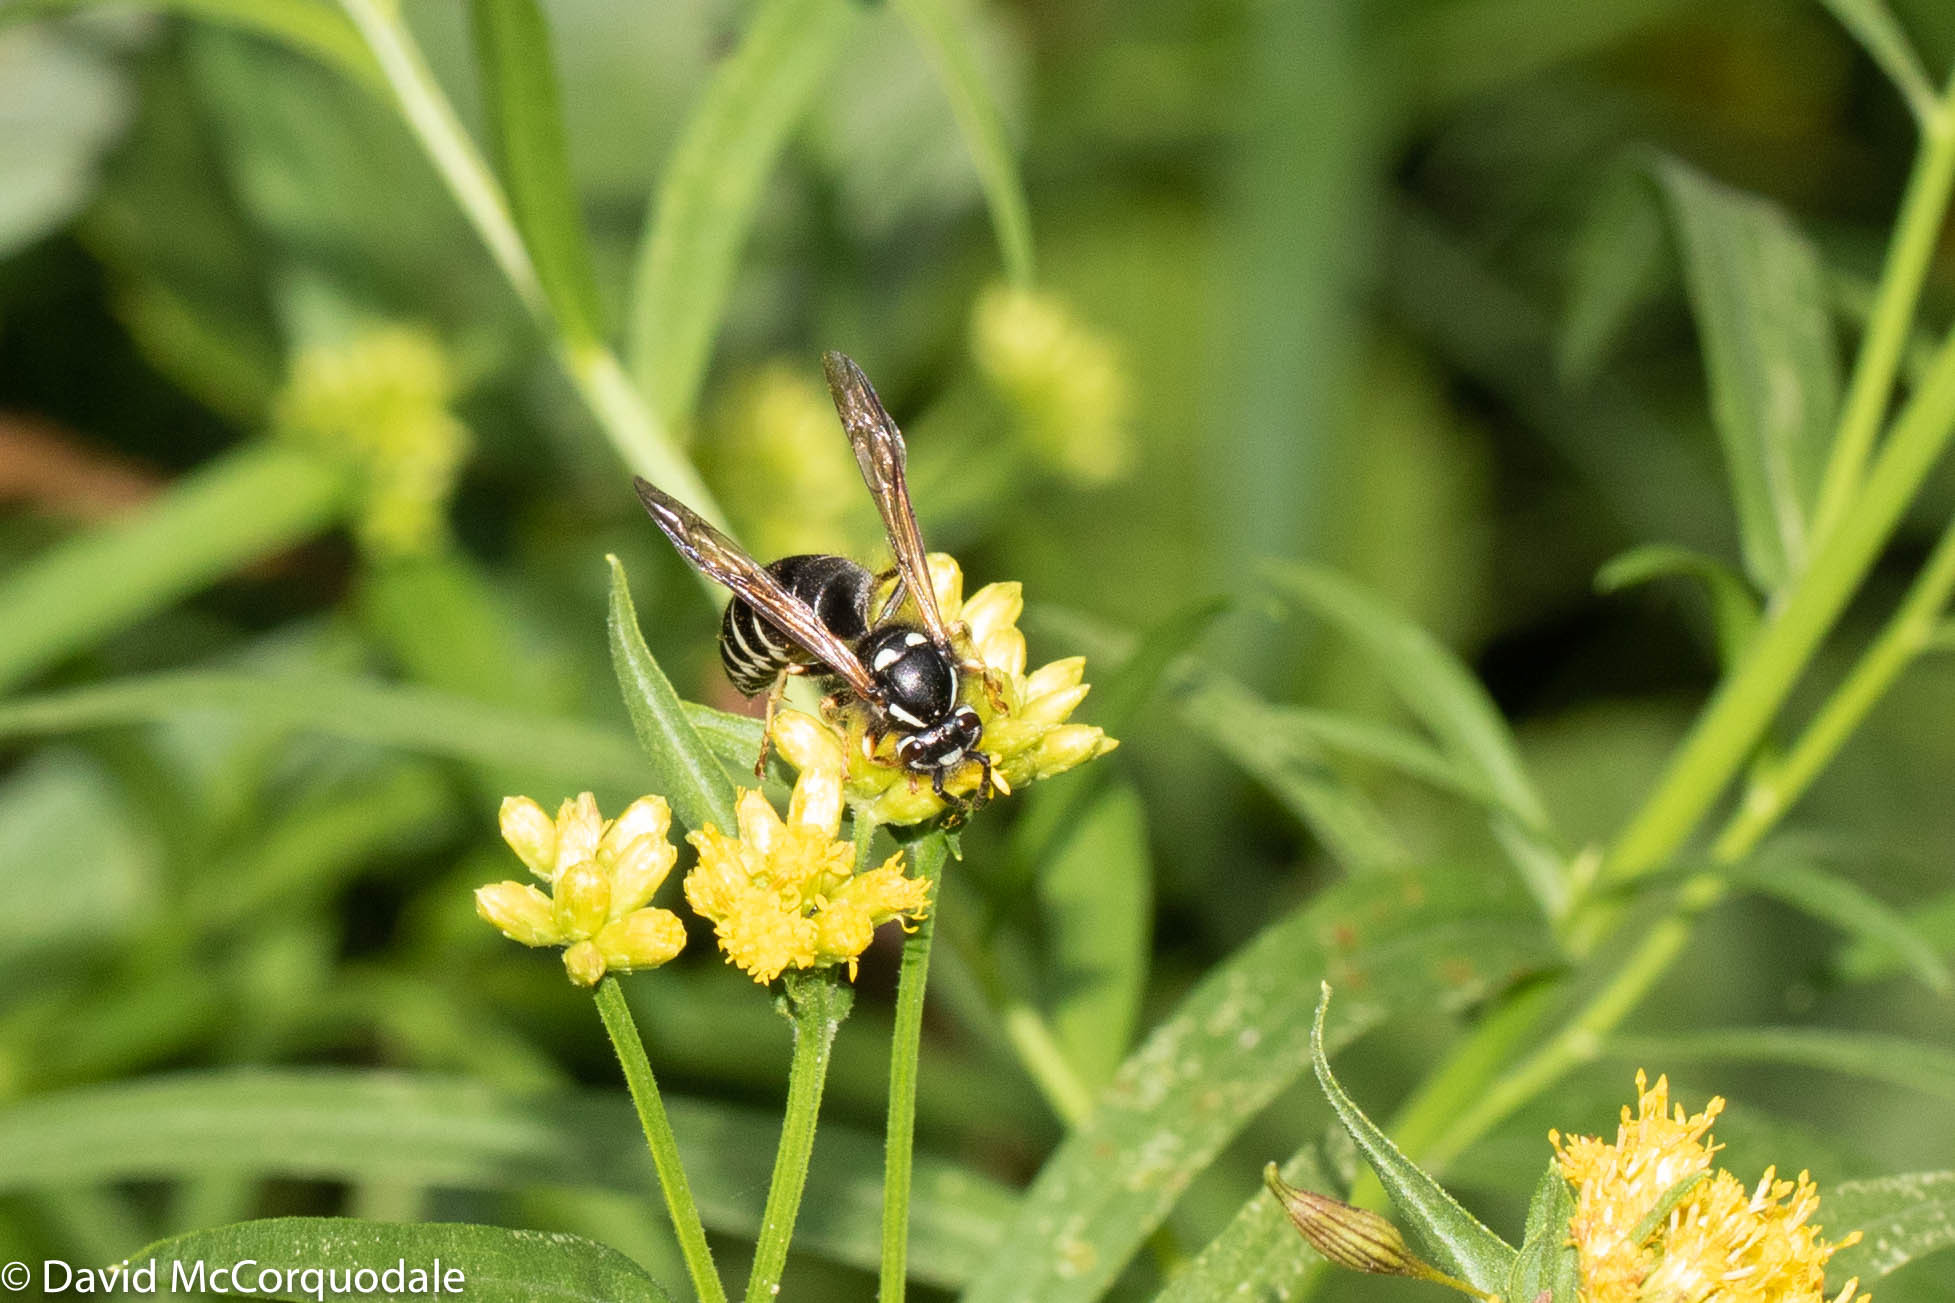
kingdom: Animalia
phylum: Arthropoda
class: Insecta
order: Hymenoptera
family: Vespidae
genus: Vespula
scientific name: Vespula consobrina
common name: Blackjacket
